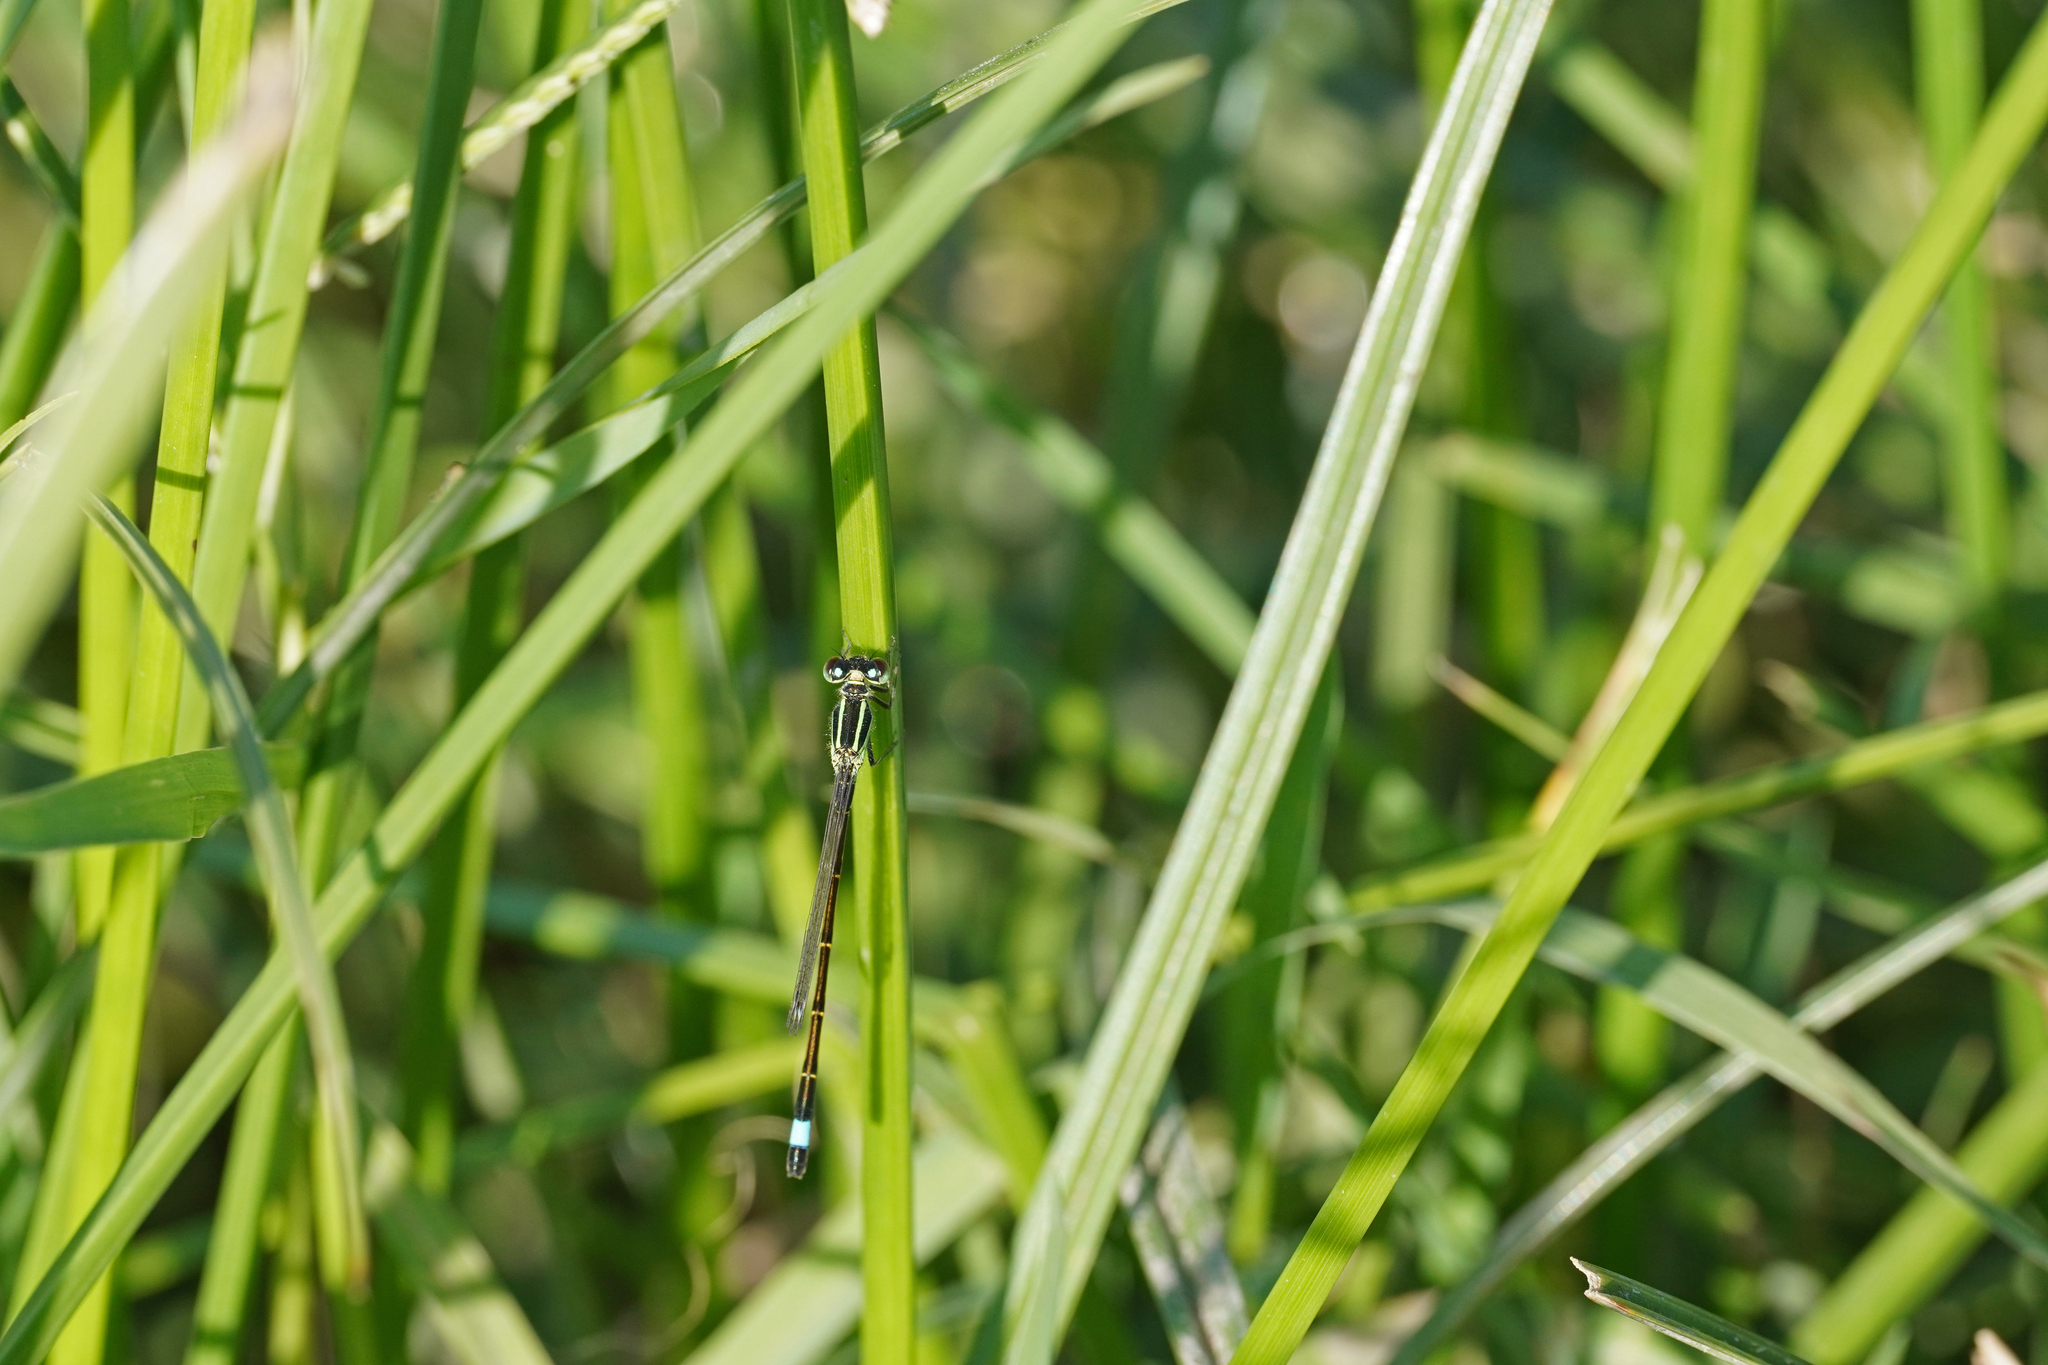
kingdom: Animalia
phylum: Arthropoda
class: Insecta
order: Odonata
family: Coenagrionidae
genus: Ischnura
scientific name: Ischnura genei
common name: Island bluetail
